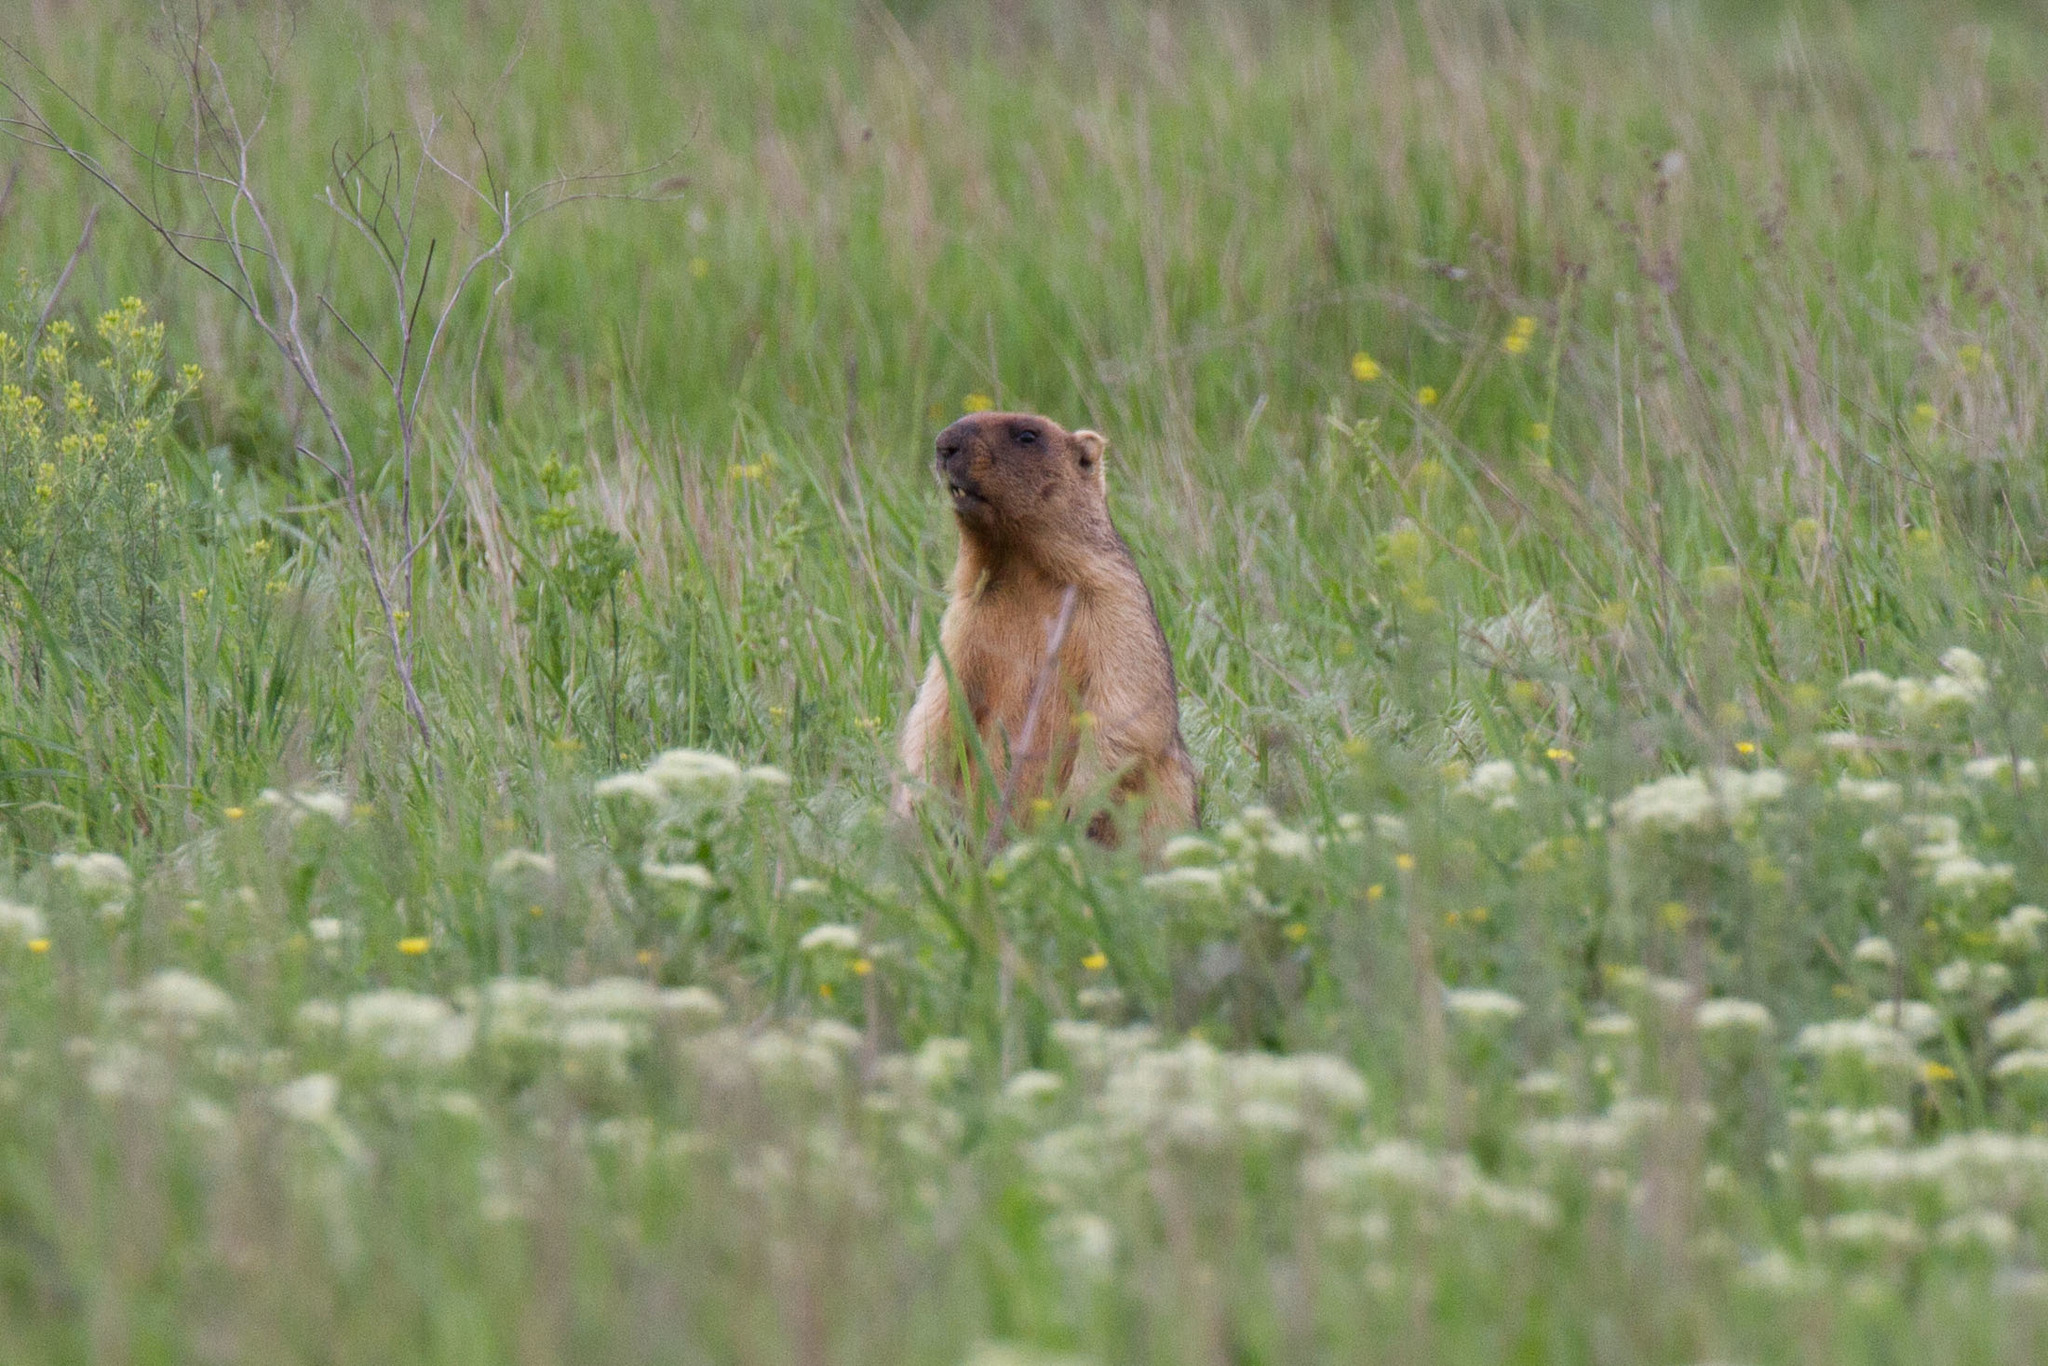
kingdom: Animalia
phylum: Chordata
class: Mammalia
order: Rodentia
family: Sciuridae
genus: Marmota
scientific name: Marmota bobak
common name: Bobak marmot
